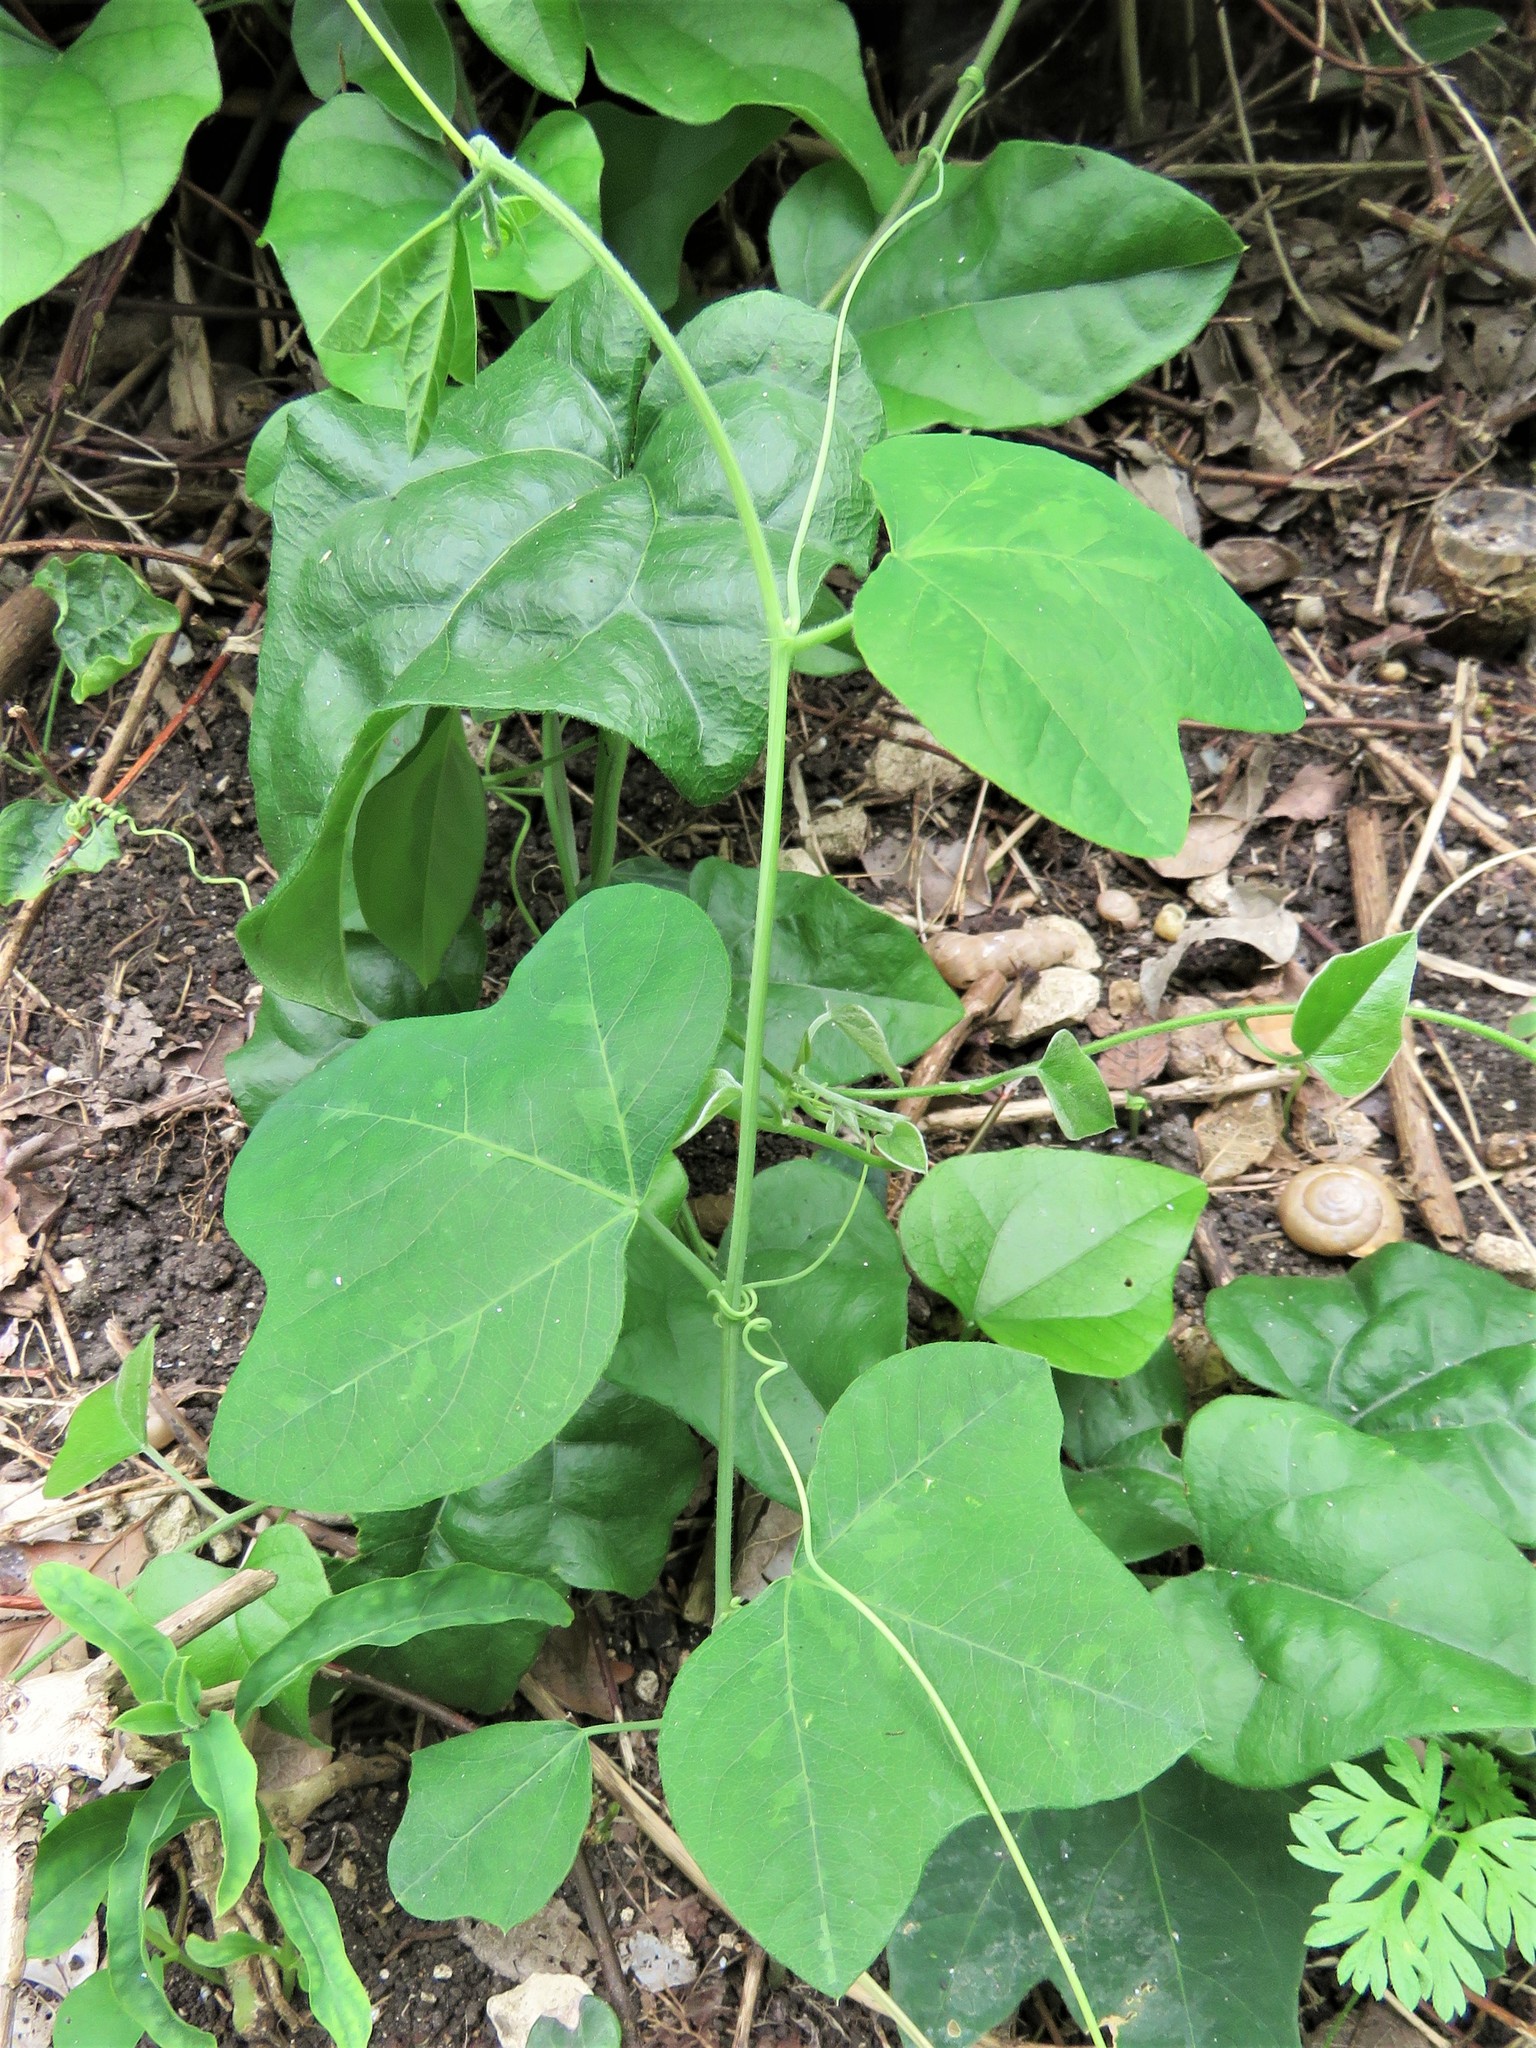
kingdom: Plantae
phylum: Tracheophyta
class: Magnoliopsida
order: Malpighiales
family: Passifloraceae
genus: Passiflora
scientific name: Passiflora lutea
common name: Yellow passionflower
